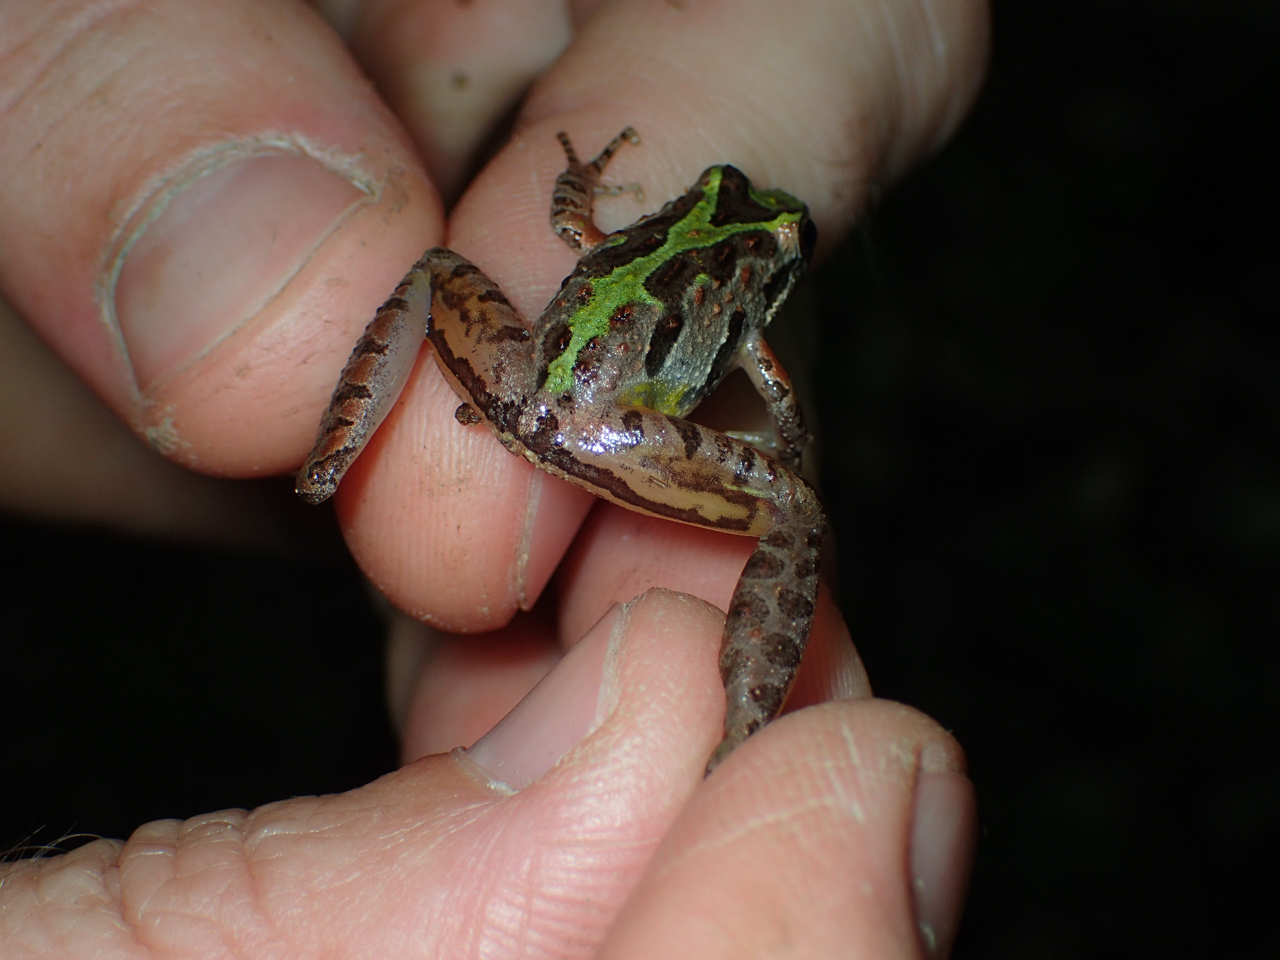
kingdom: Animalia
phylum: Chordata
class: Amphibia
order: Anura
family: Hylidae
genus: Acris
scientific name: Acris gryllus
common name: Southern cricket frog
